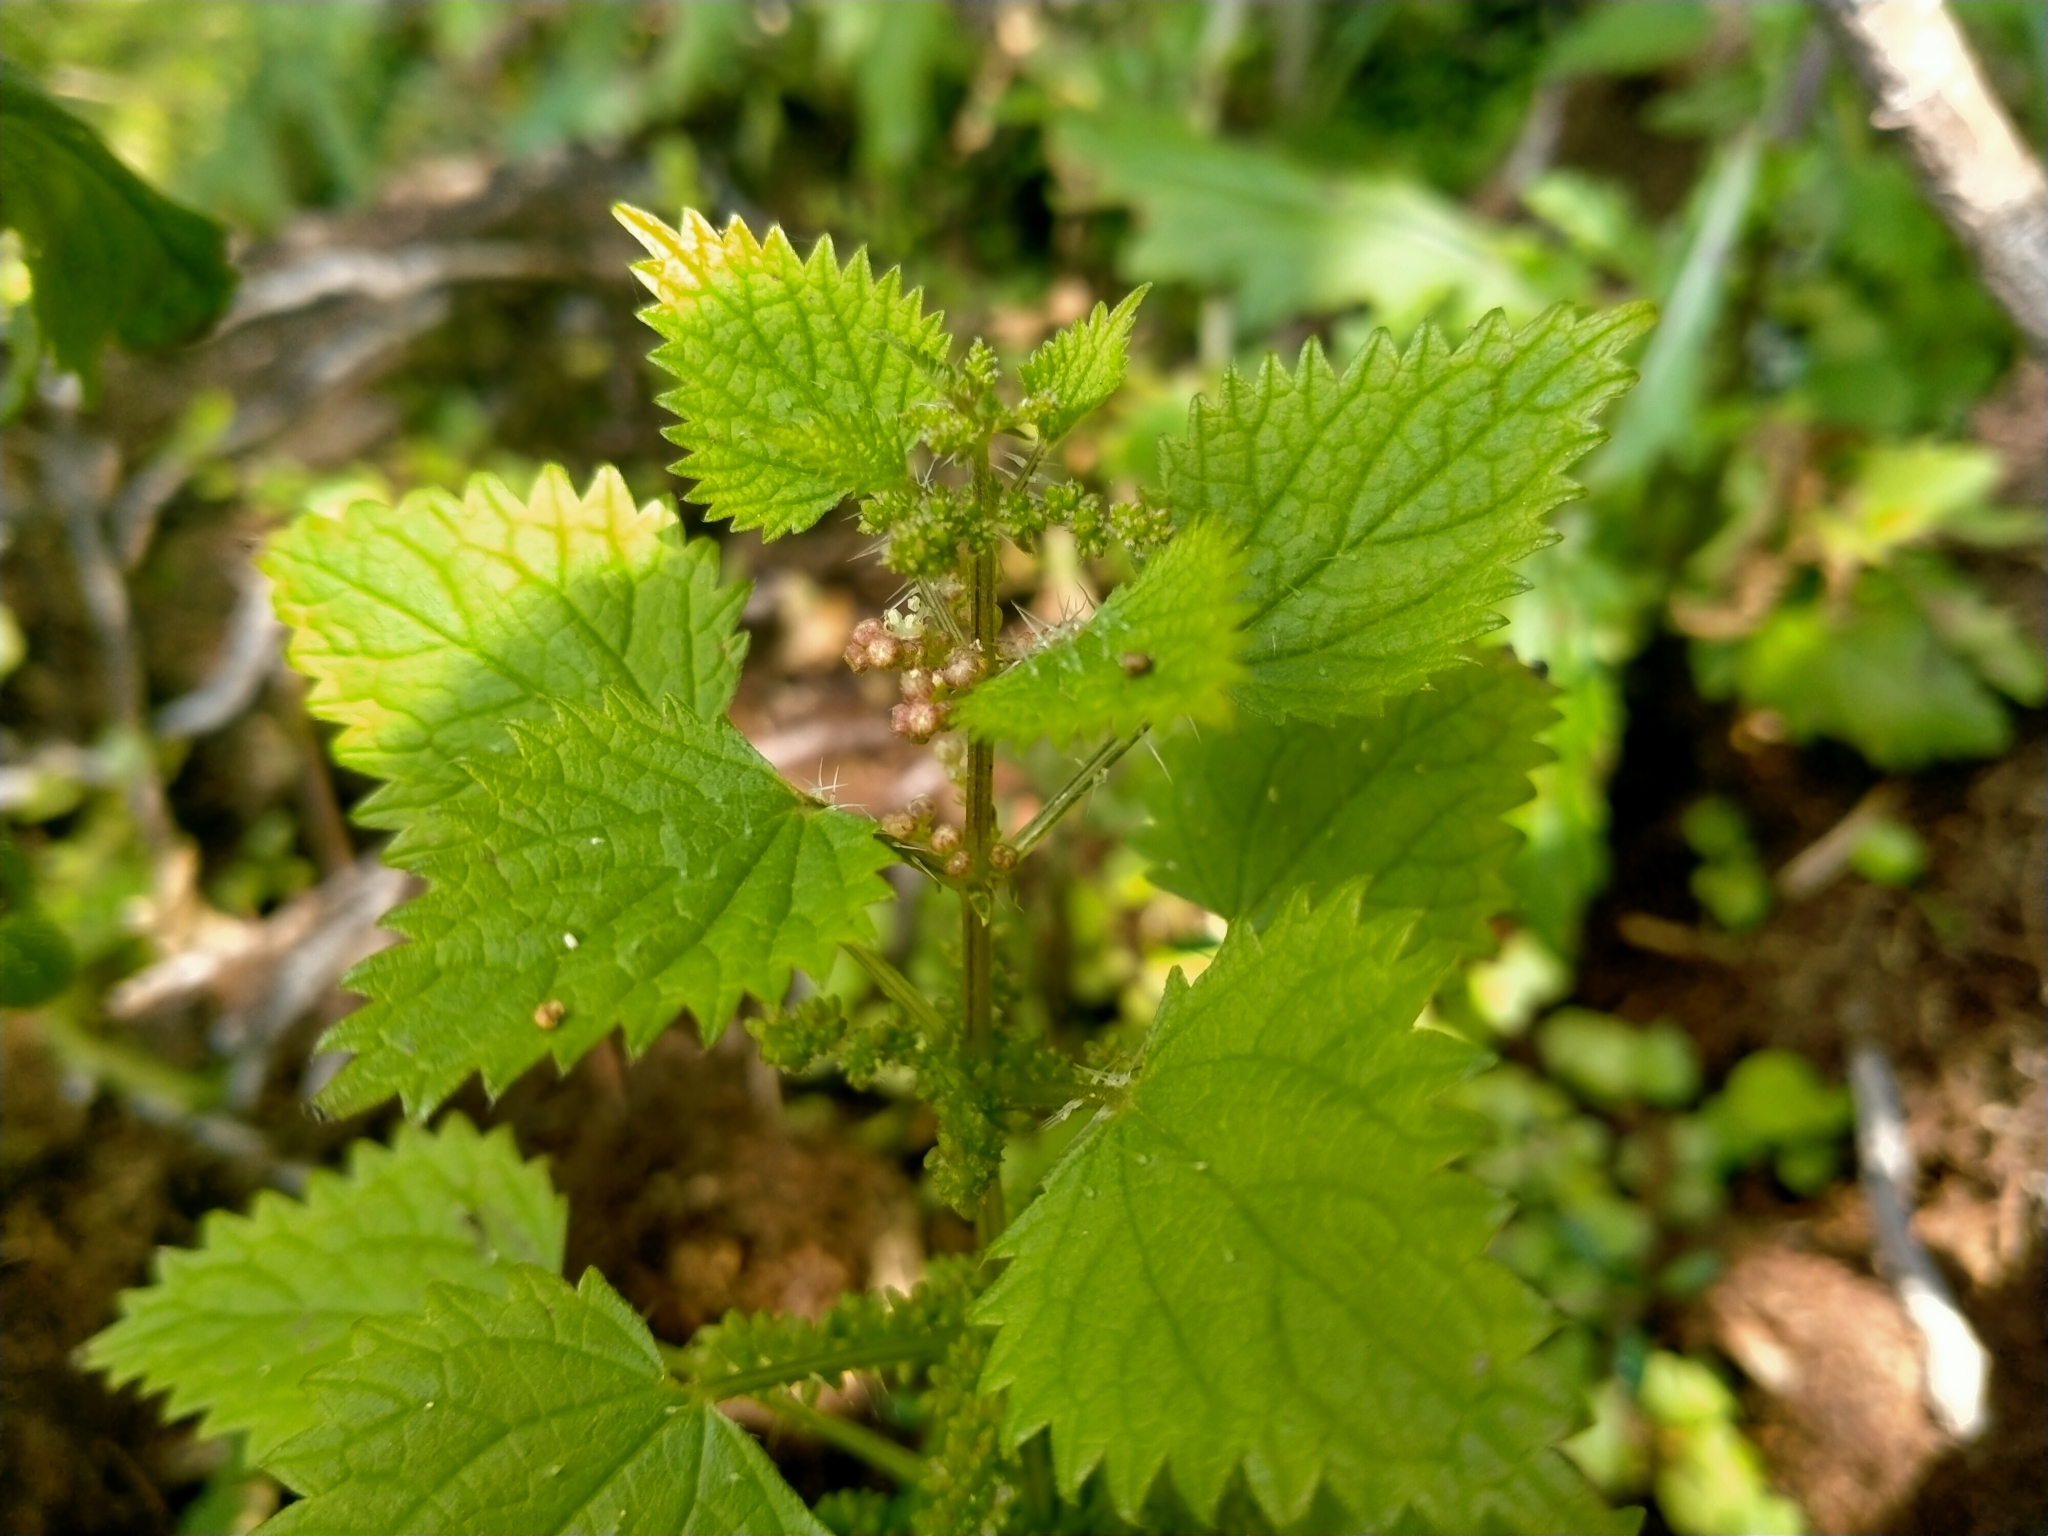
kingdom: Plantae
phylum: Tracheophyta
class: Magnoliopsida
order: Rosales
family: Urticaceae
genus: Urtica
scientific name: Urtica sykesii
